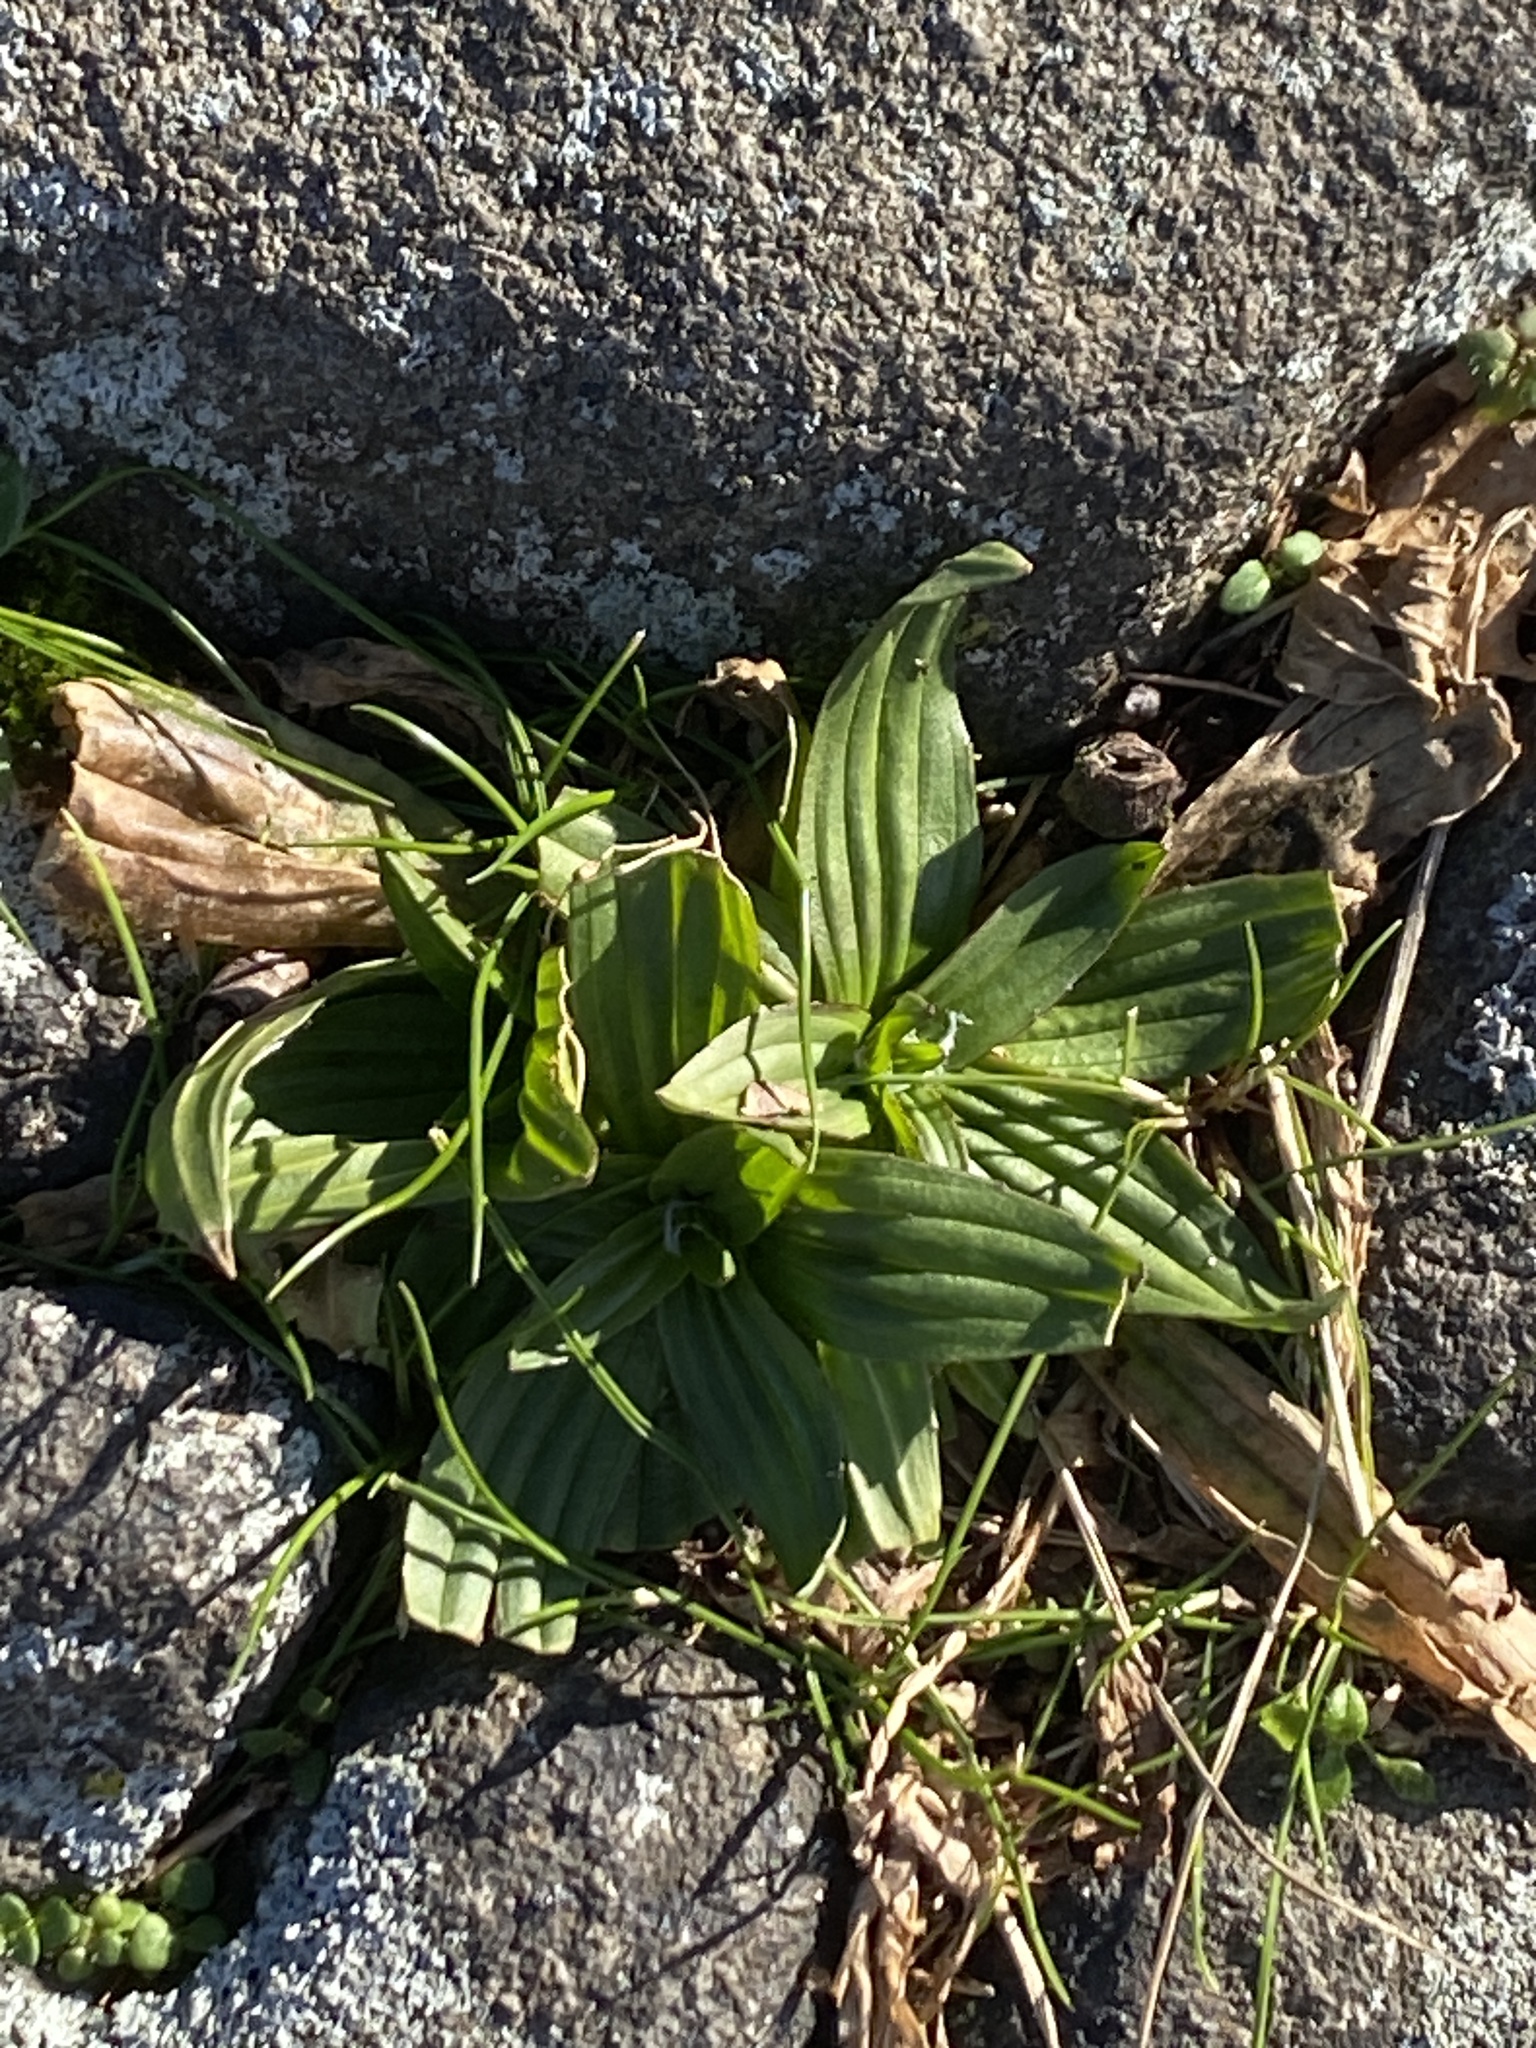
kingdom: Plantae
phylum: Tracheophyta
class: Magnoliopsida
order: Lamiales
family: Plantaginaceae
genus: Plantago
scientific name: Plantago lanceolata
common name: Ribwort plantain
